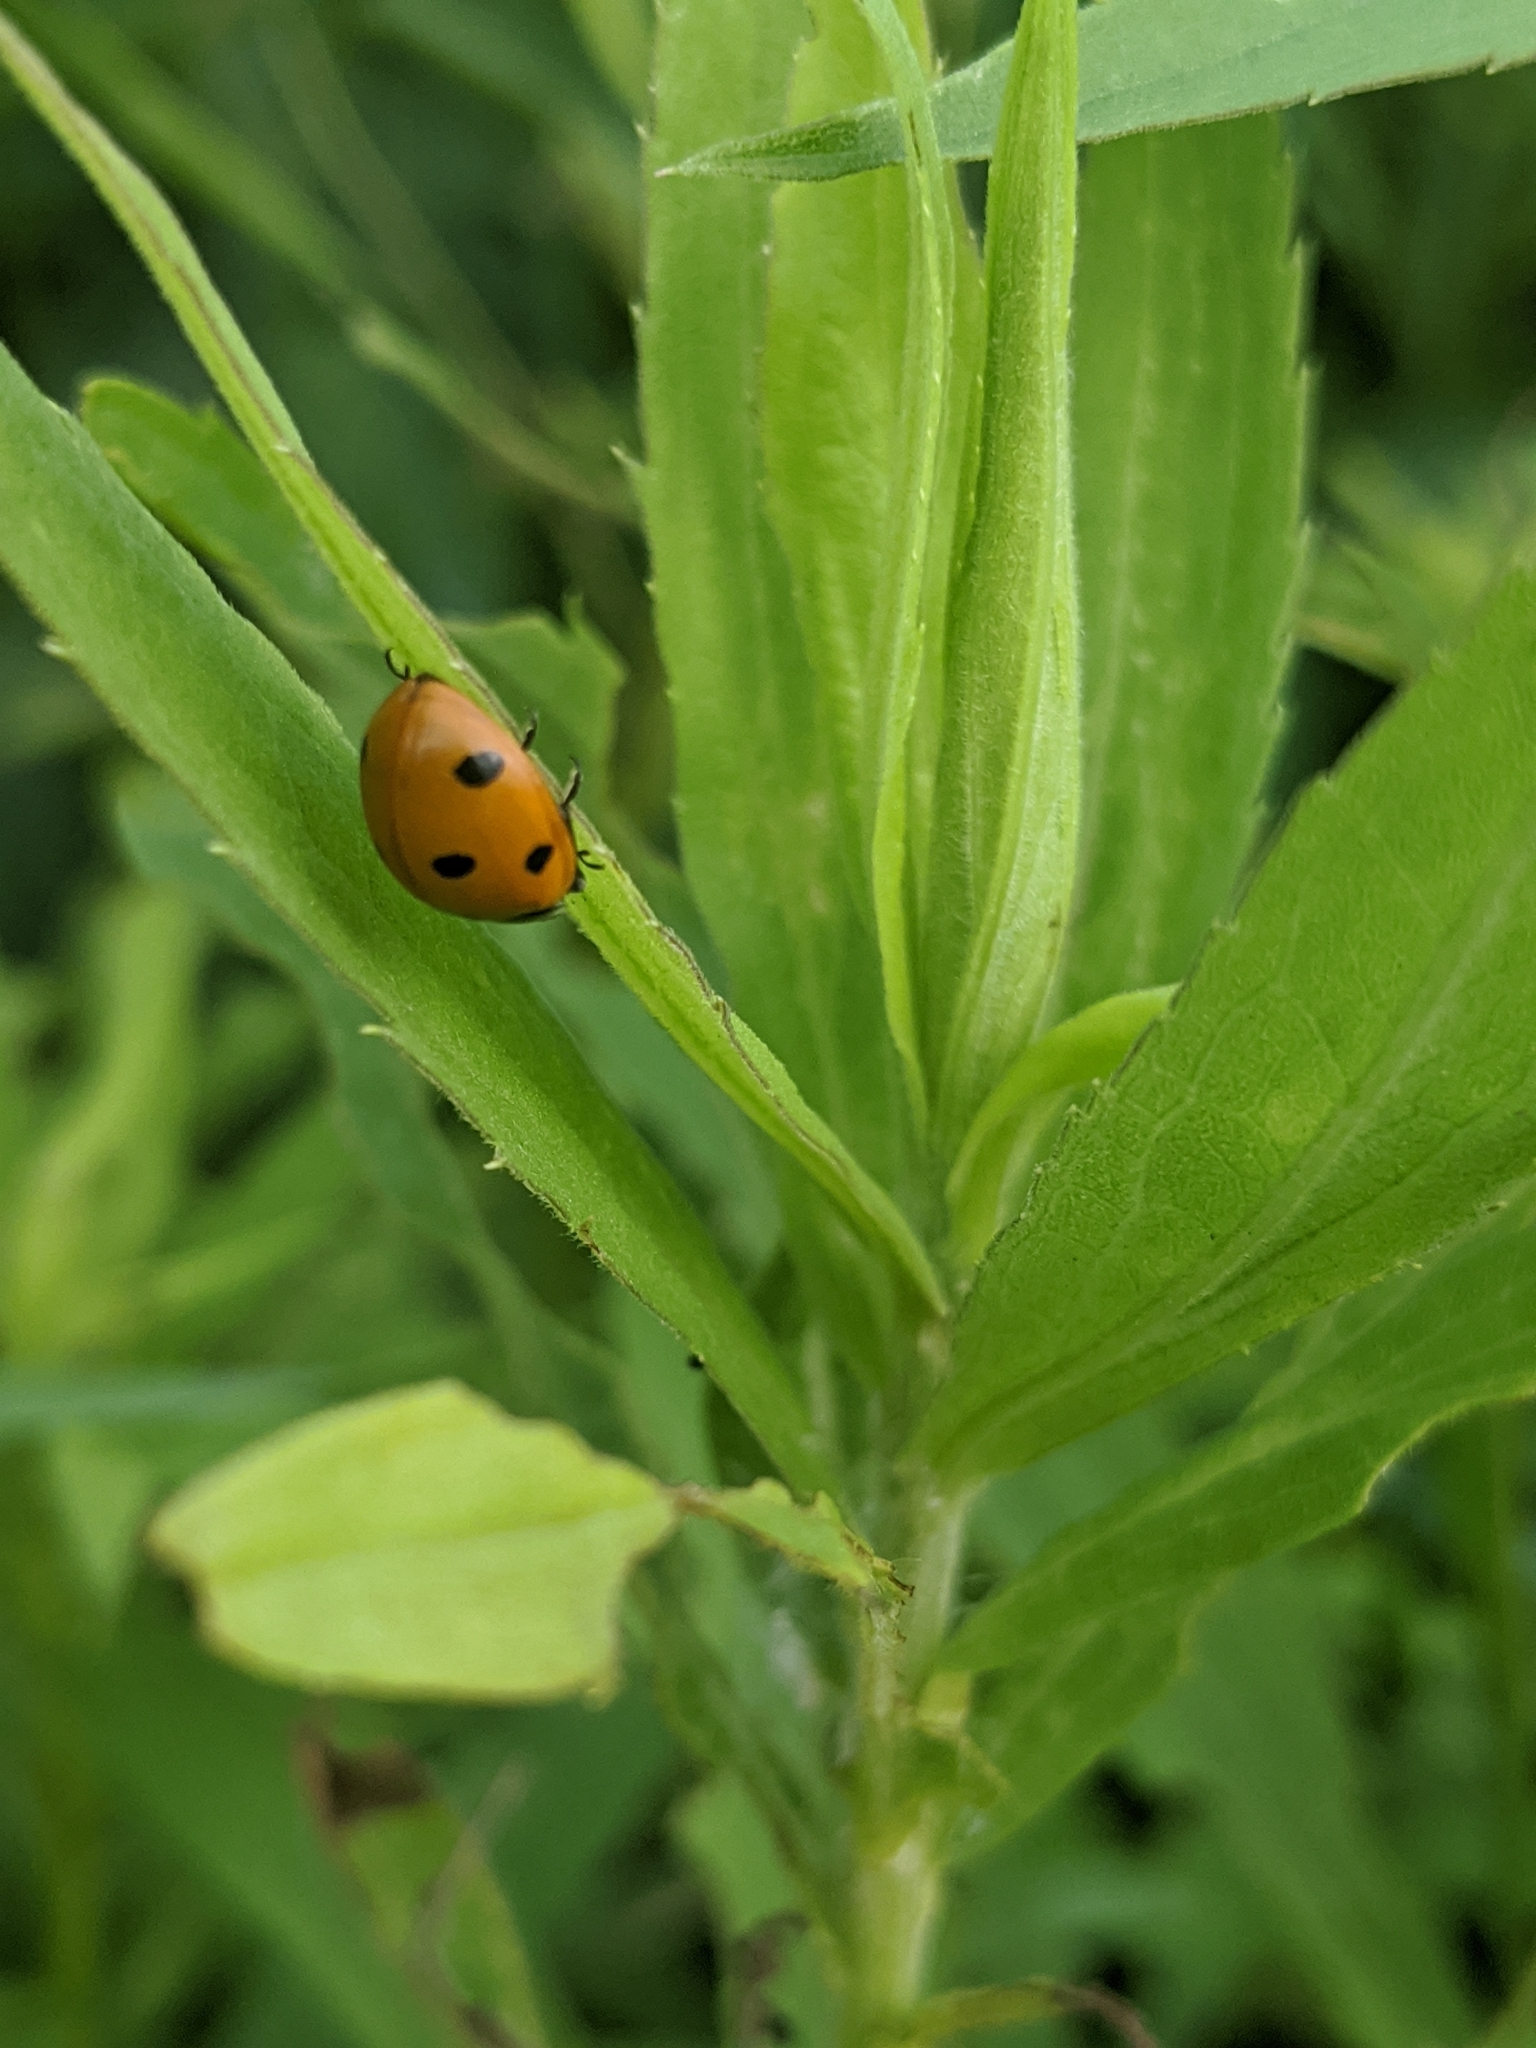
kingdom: Animalia
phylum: Arthropoda
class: Insecta
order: Coleoptera
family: Coccinellidae
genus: Coccinella
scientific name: Coccinella septempunctata
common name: Sevenspotted lady beetle
